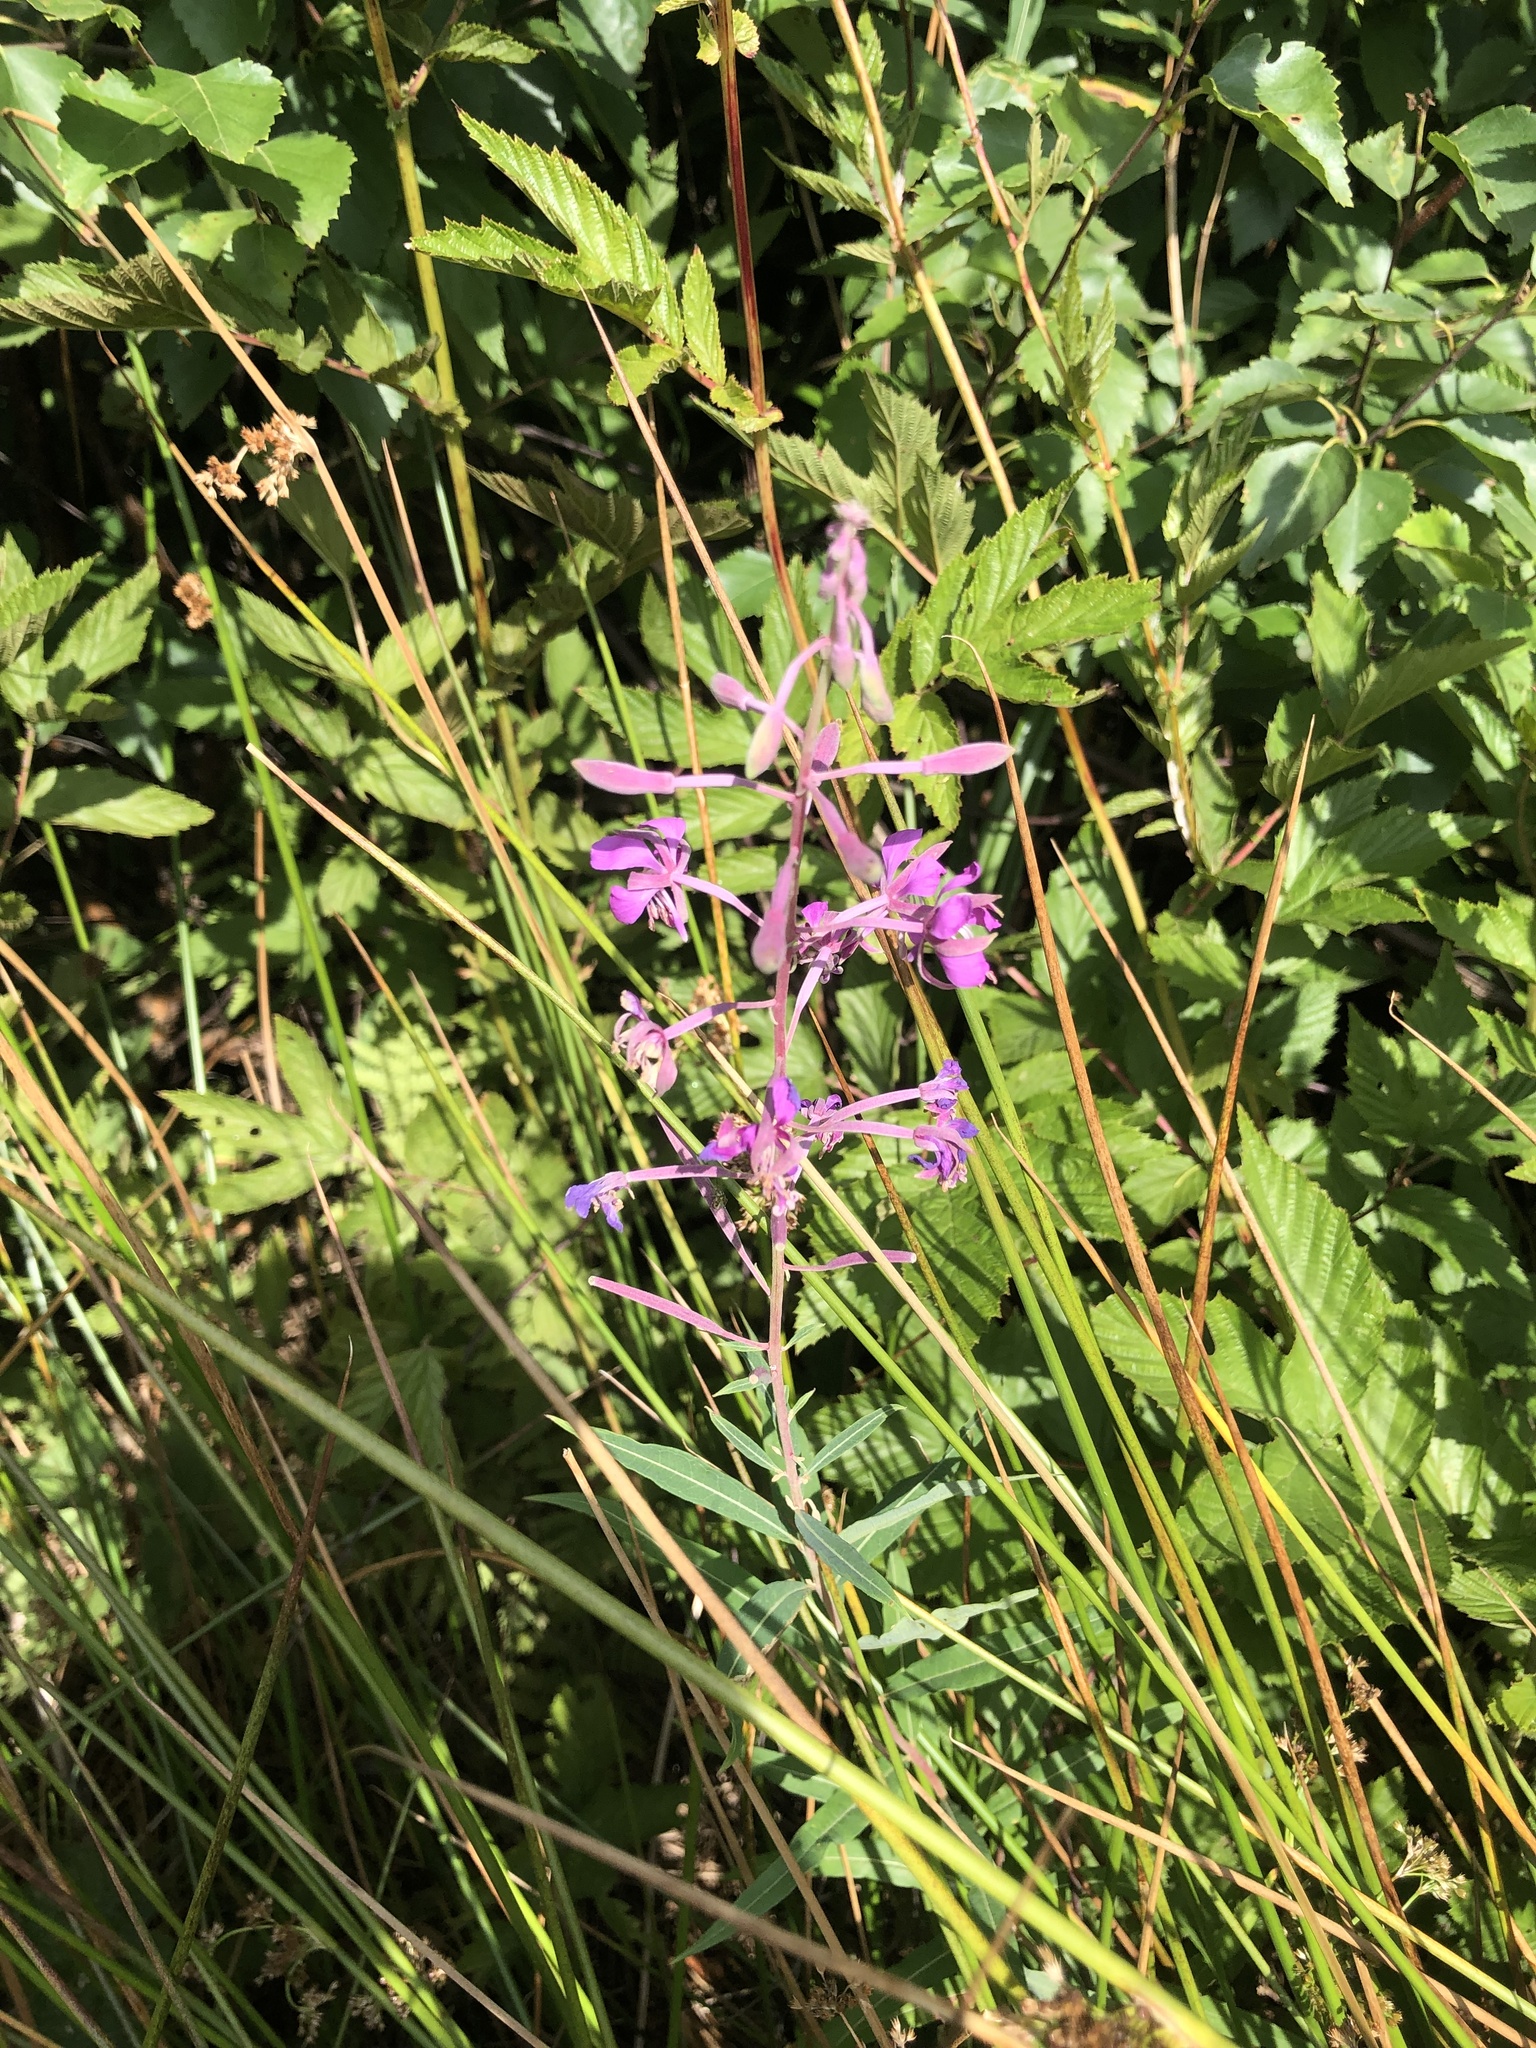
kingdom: Plantae
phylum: Tracheophyta
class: Magnoliopsida
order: Myrtales
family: Onagraceae
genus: Chamaenerion
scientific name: Chamaenerion angustifolium
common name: Fireweed
